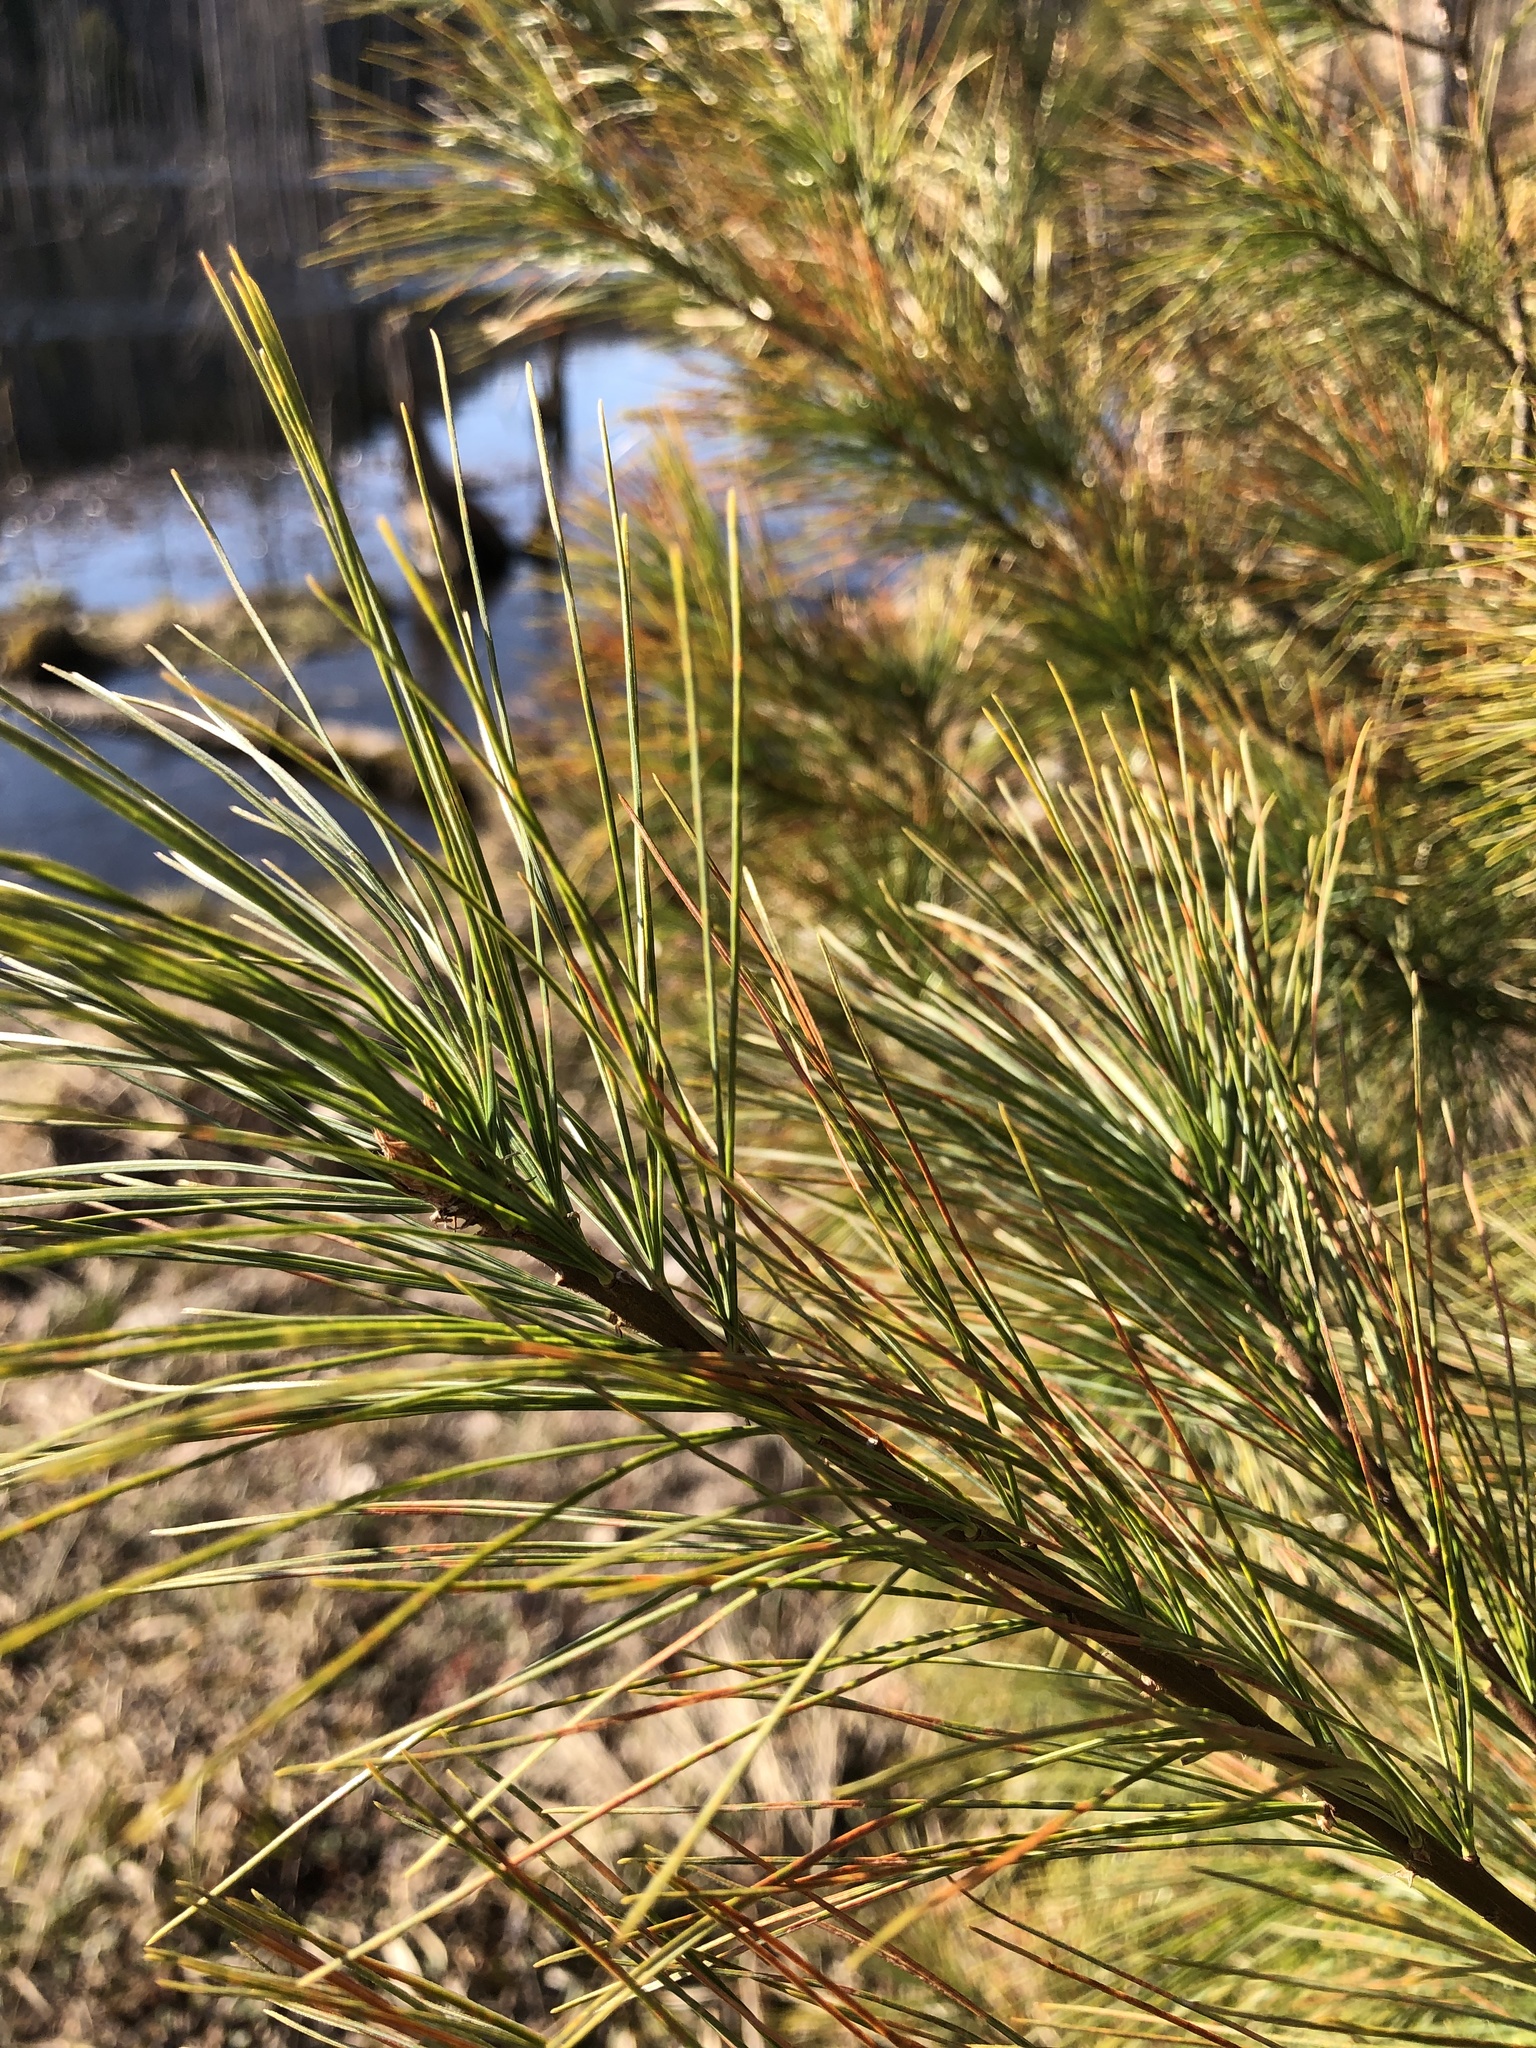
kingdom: Plantae
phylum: Tracheophyta
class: Pinopsida
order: Pinales
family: Pinaceae
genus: Pinus
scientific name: Pinus strobus
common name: Weymouth pine
